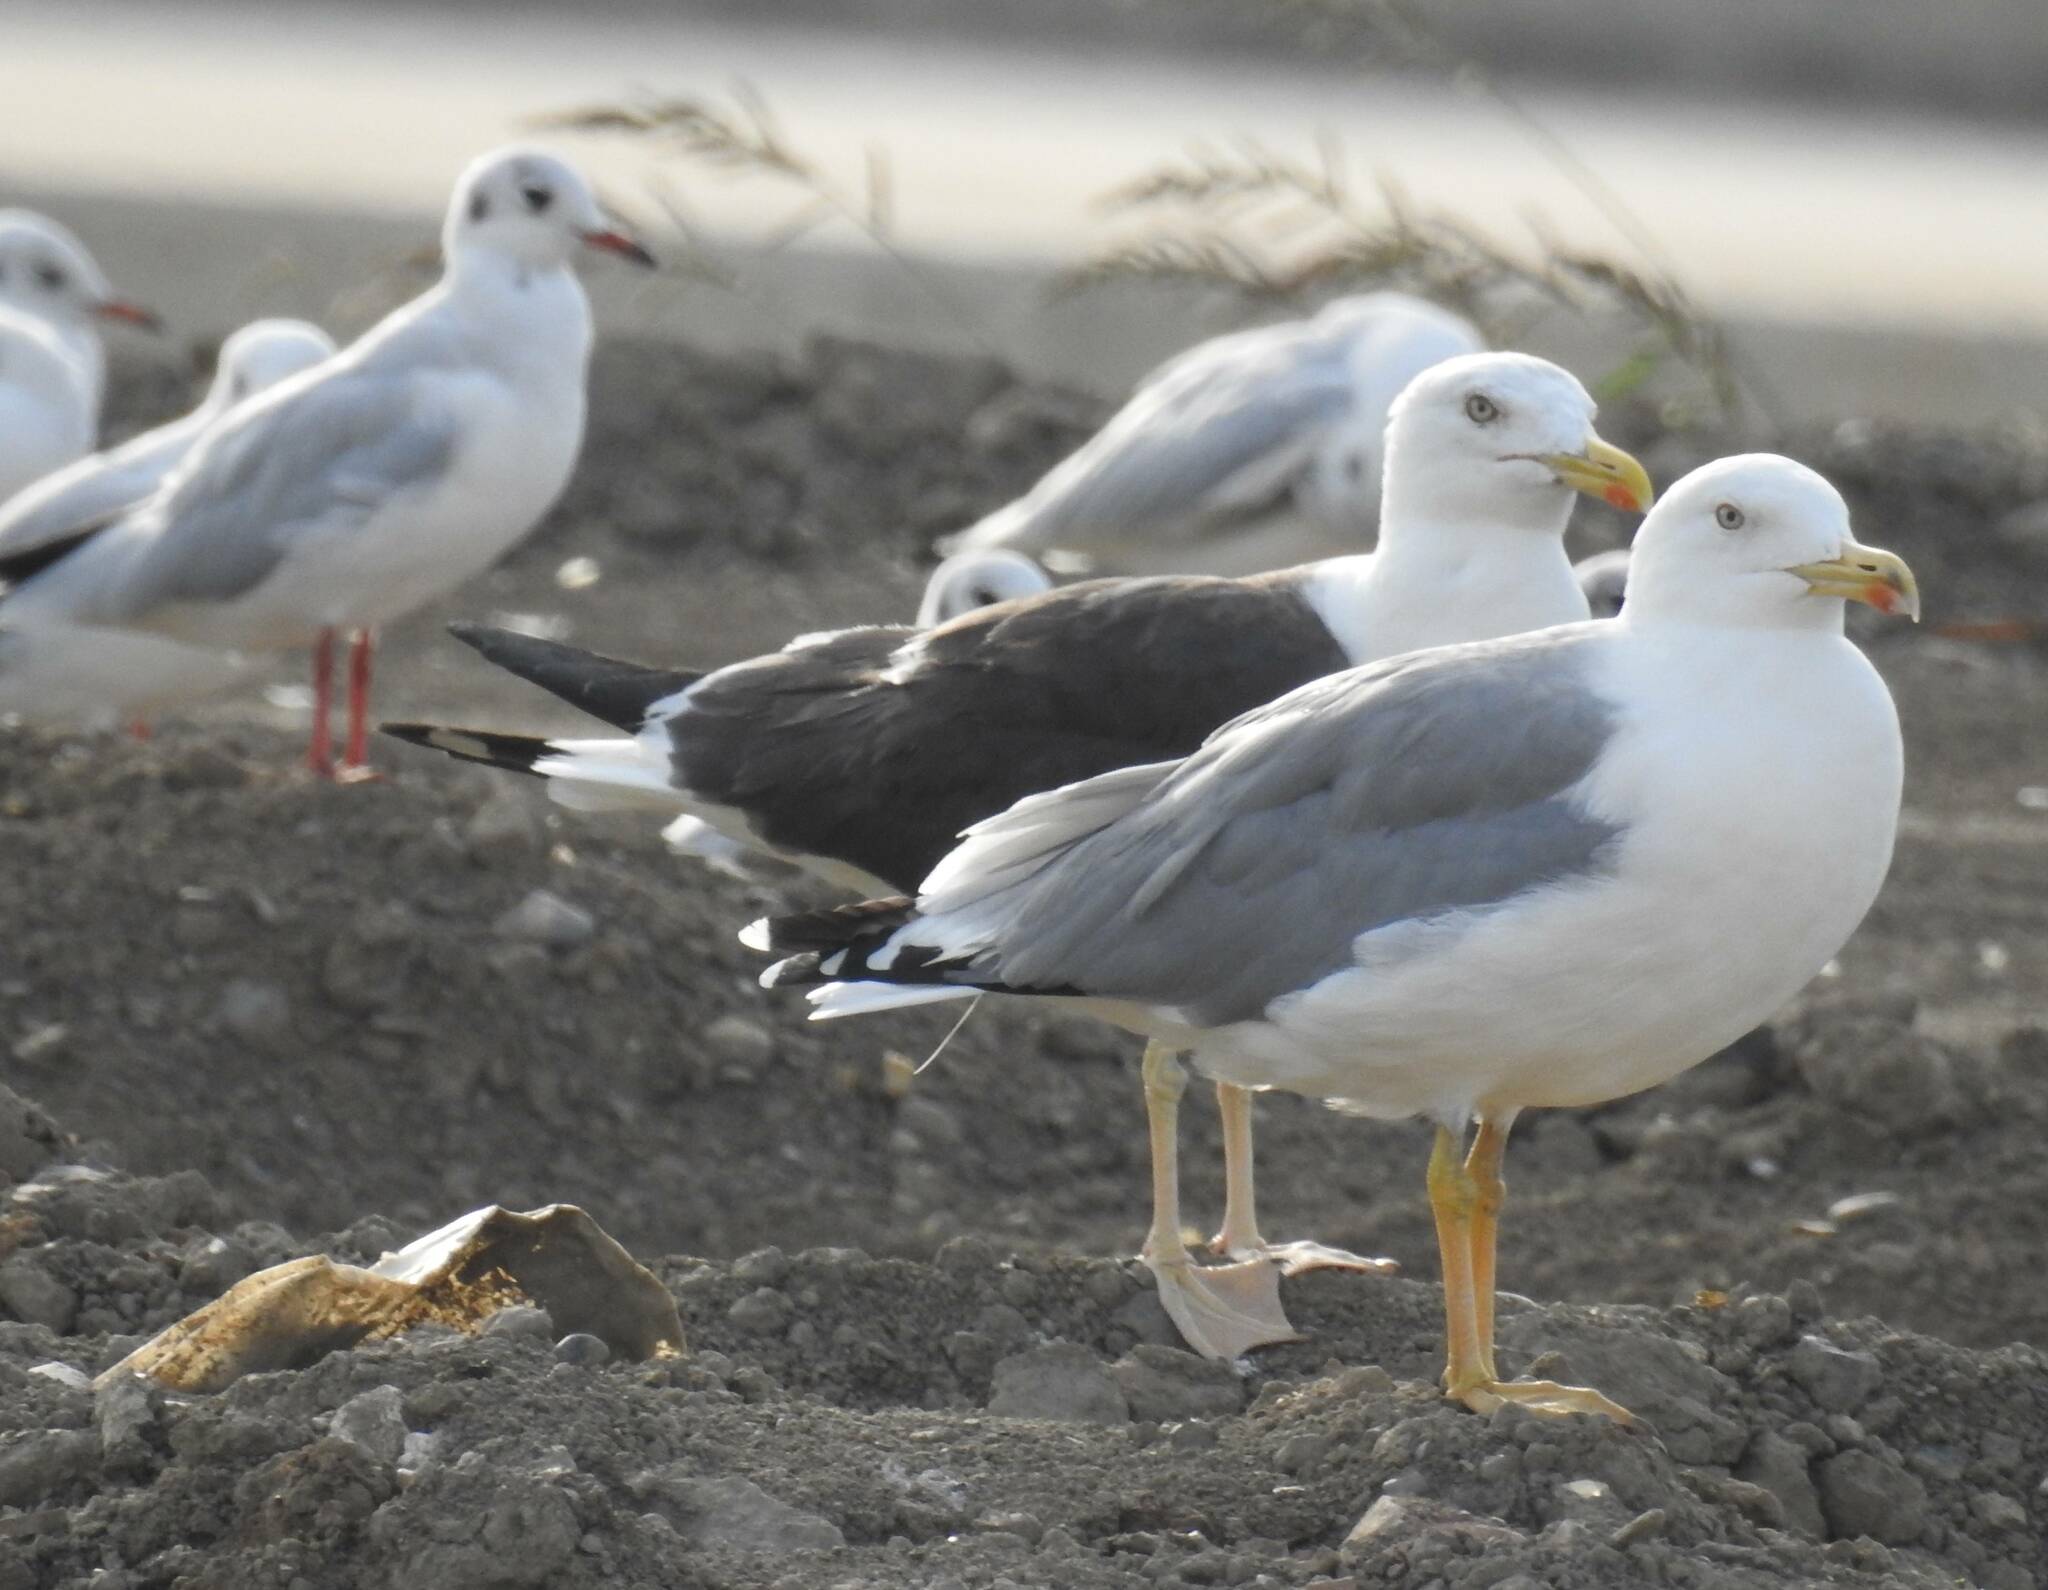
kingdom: Animalia
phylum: Chordata
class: Aves
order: Charadriiformes
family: Laridae
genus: Larus
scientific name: Larus michahellis
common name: Yellow-legged gull
